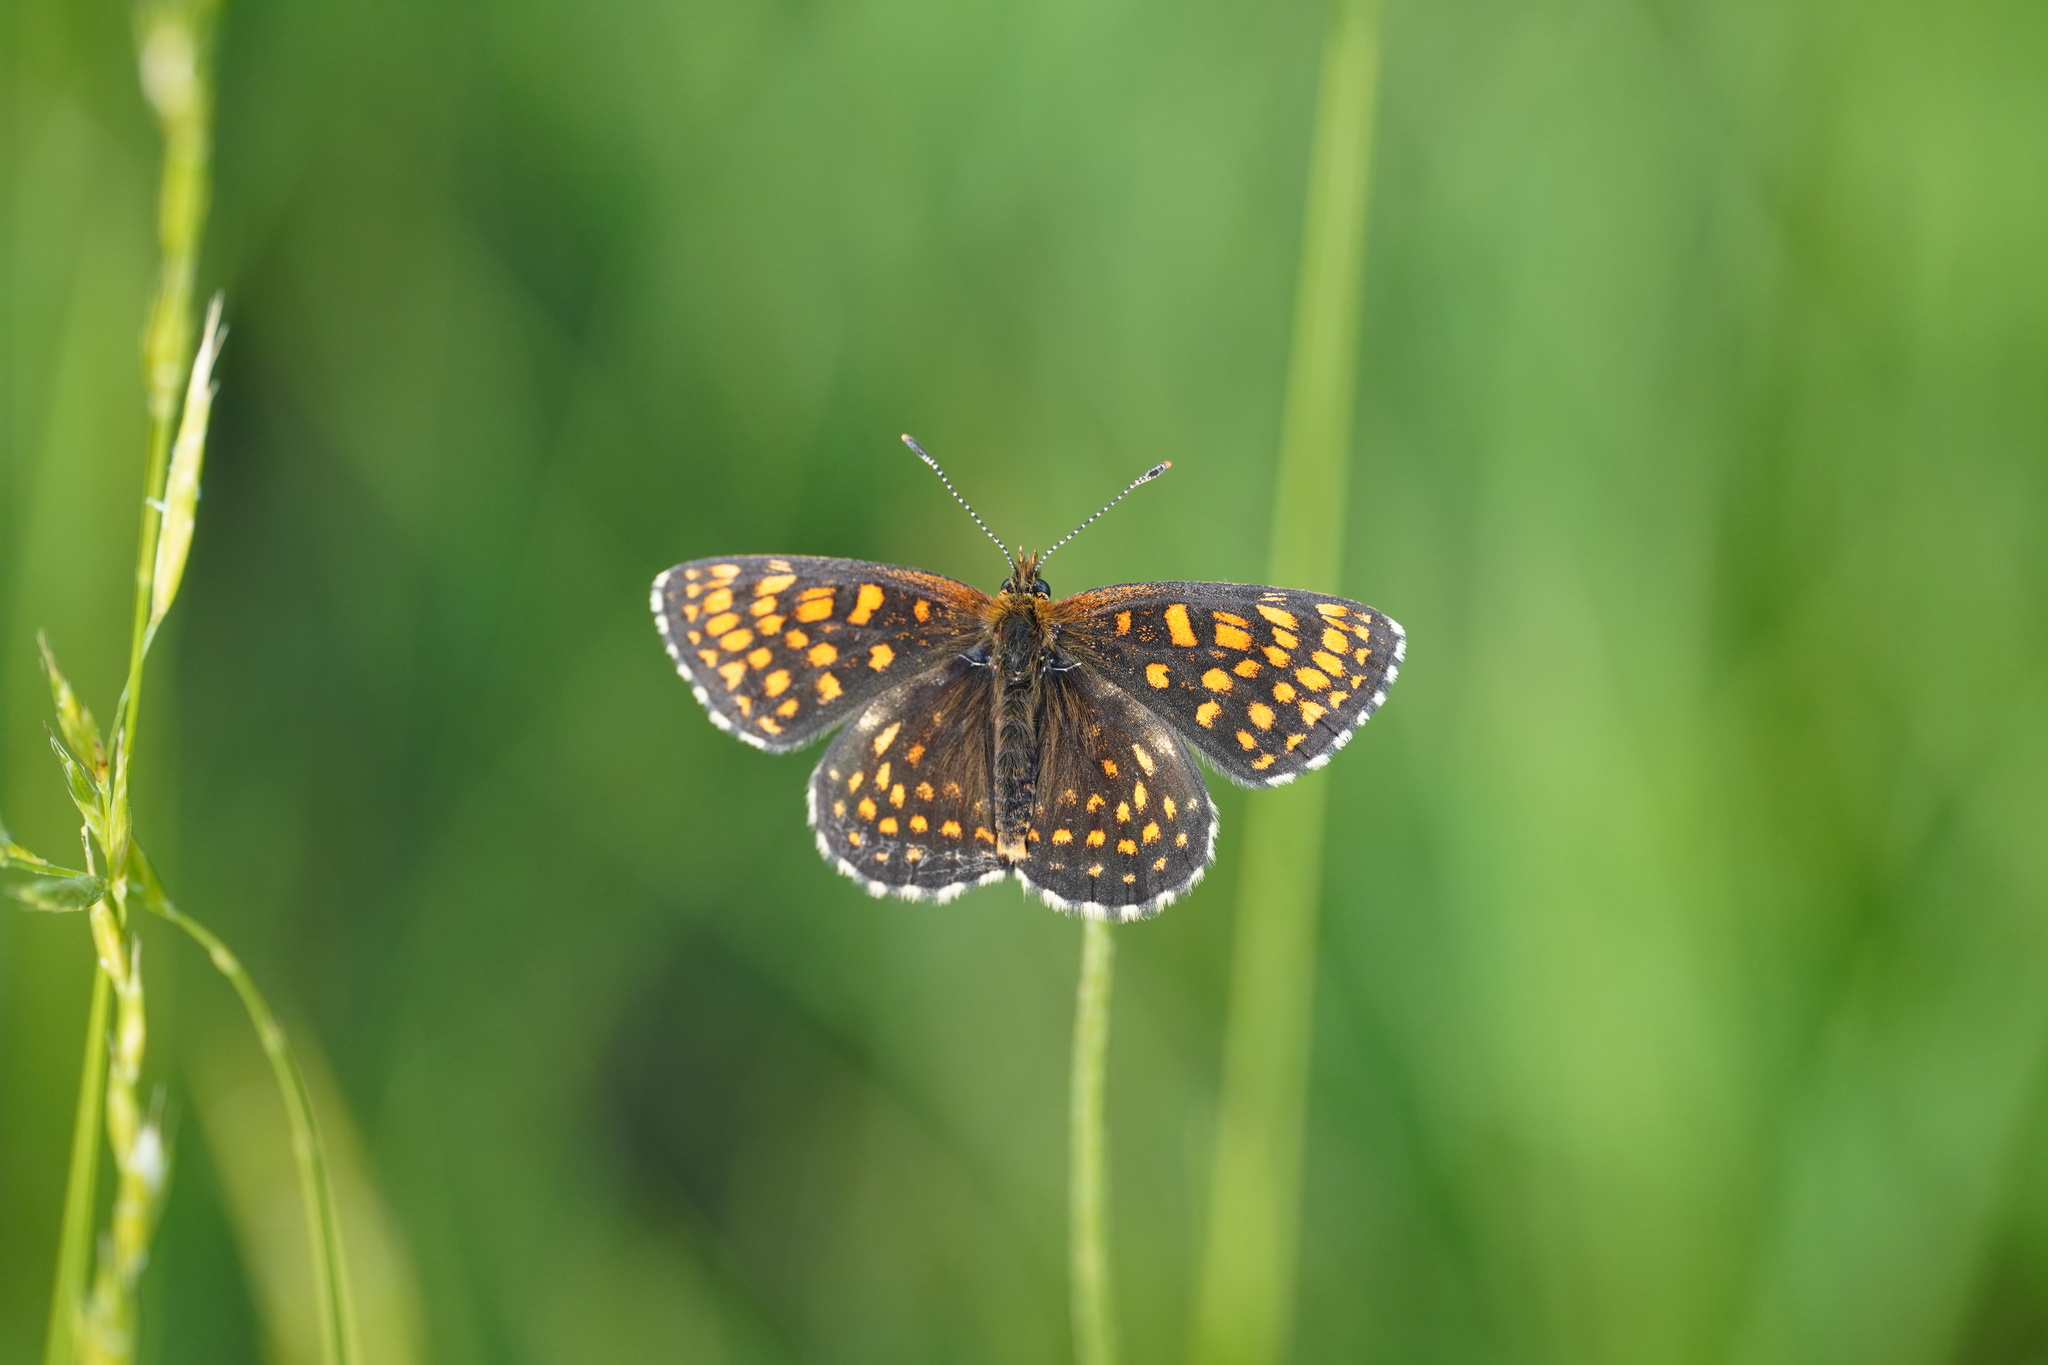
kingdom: Animalia
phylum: Arthropoda
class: Insecta
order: Lepidoptera
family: Nymphalidae
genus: Melitaea
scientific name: Melitaea diamina
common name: False heath fritillary
